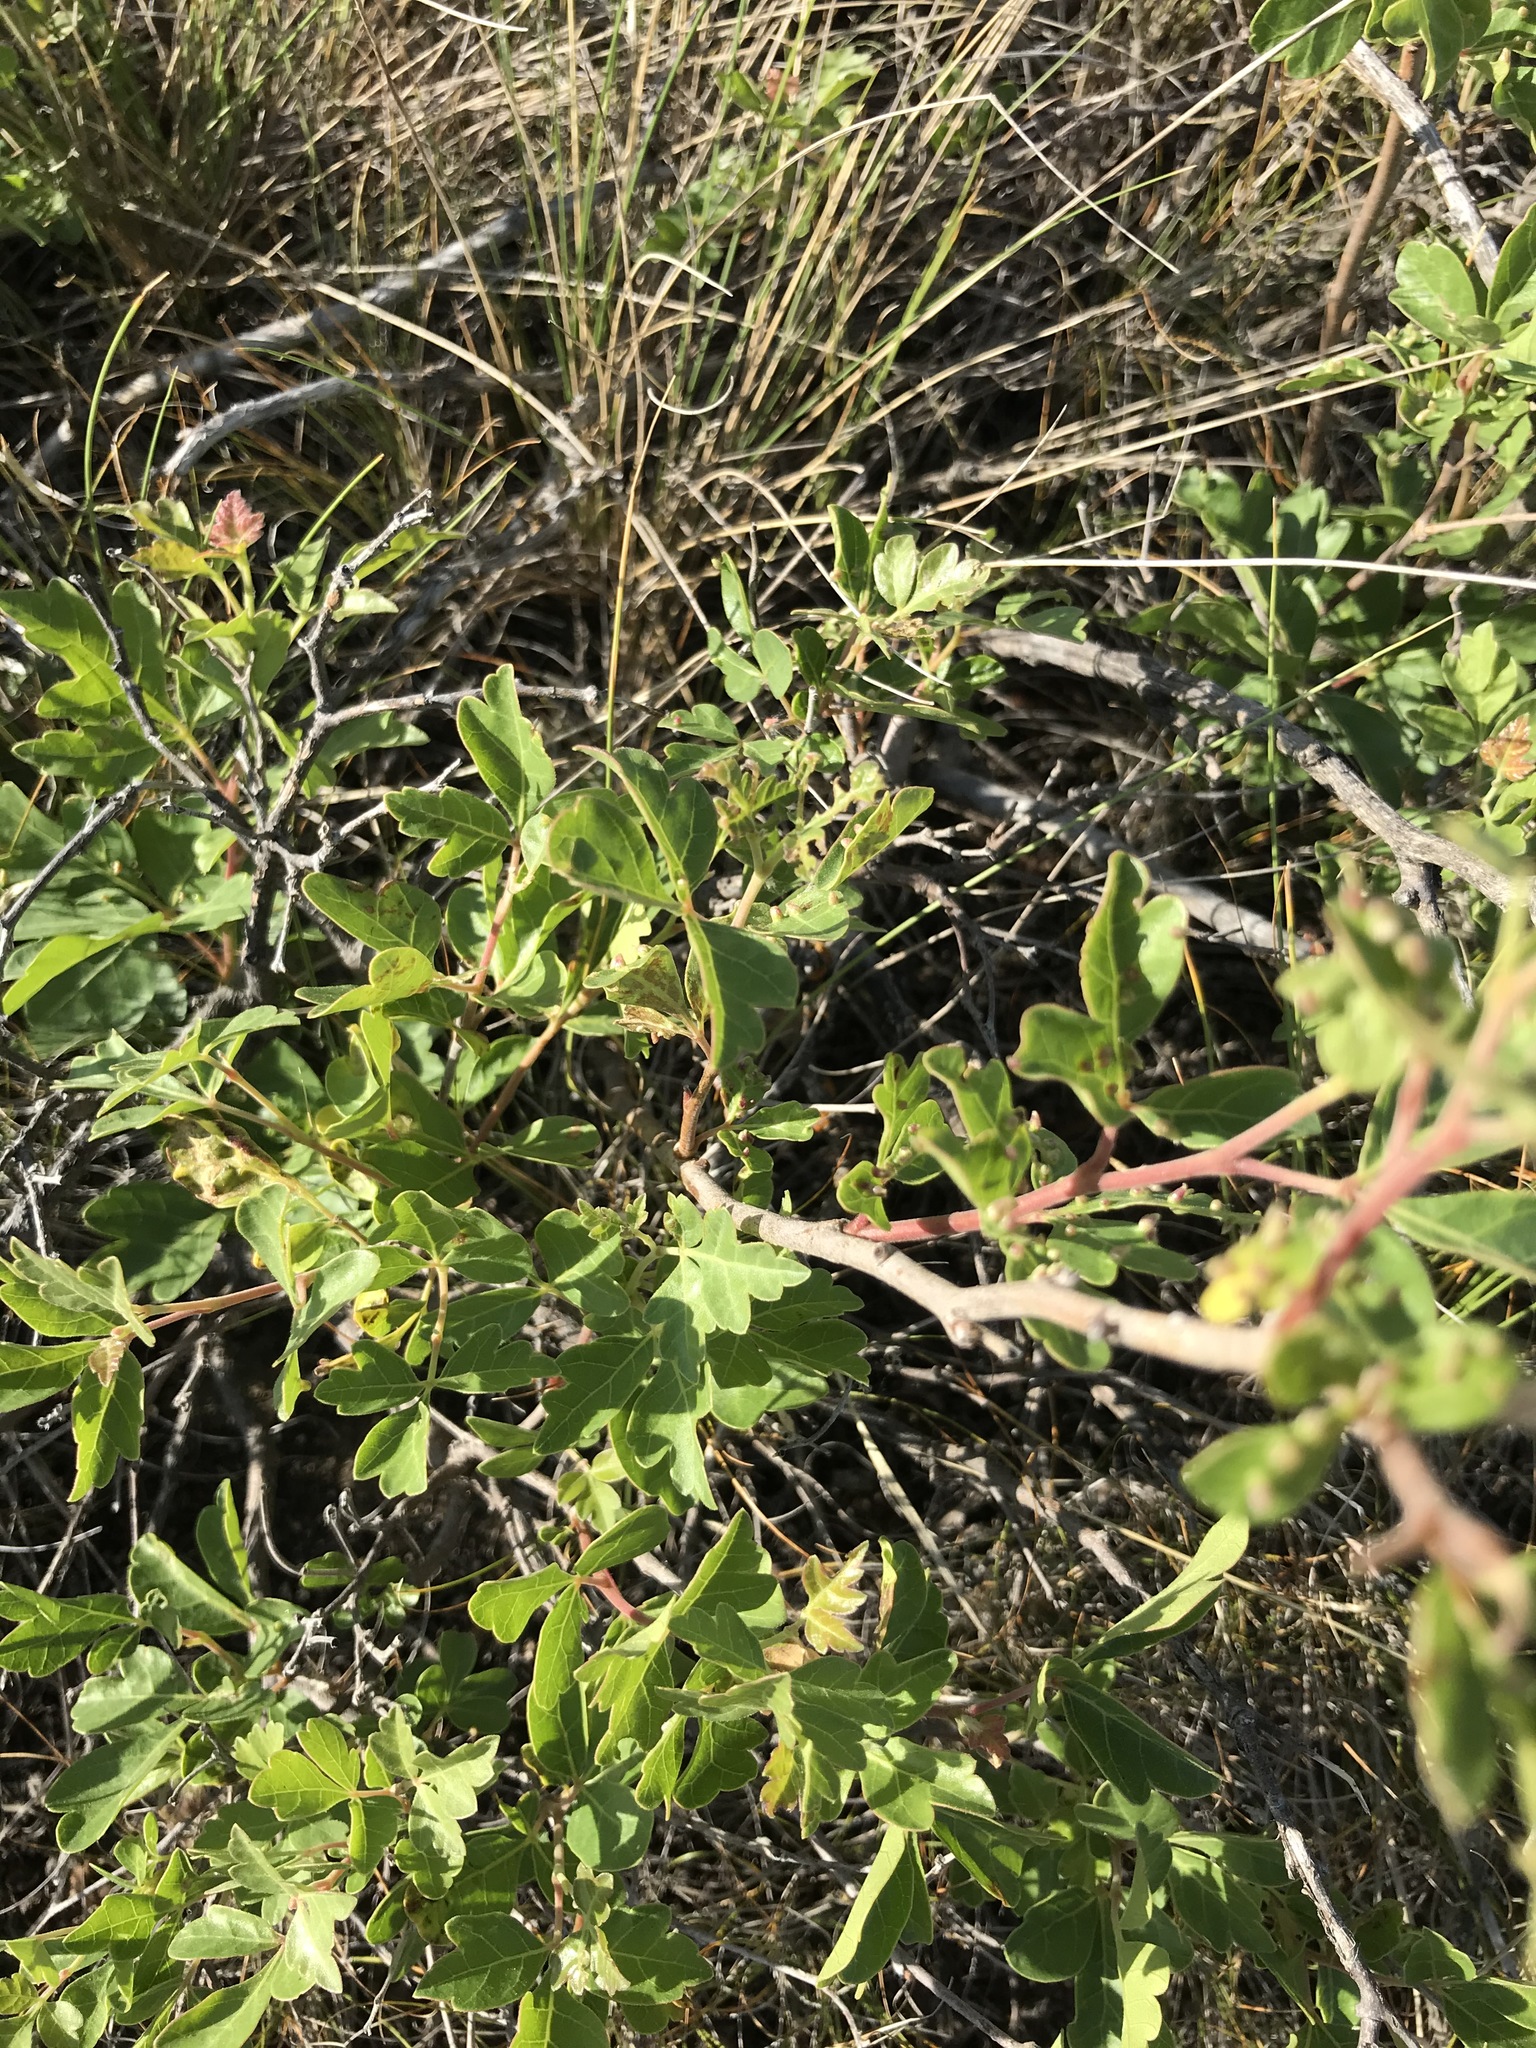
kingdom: Plantae
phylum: Tracheophyta
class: Magnoliopsida
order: Sapindales
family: Anacardiaceae
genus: Rhus
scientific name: Rhus aromatica
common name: Aromatic sumac
